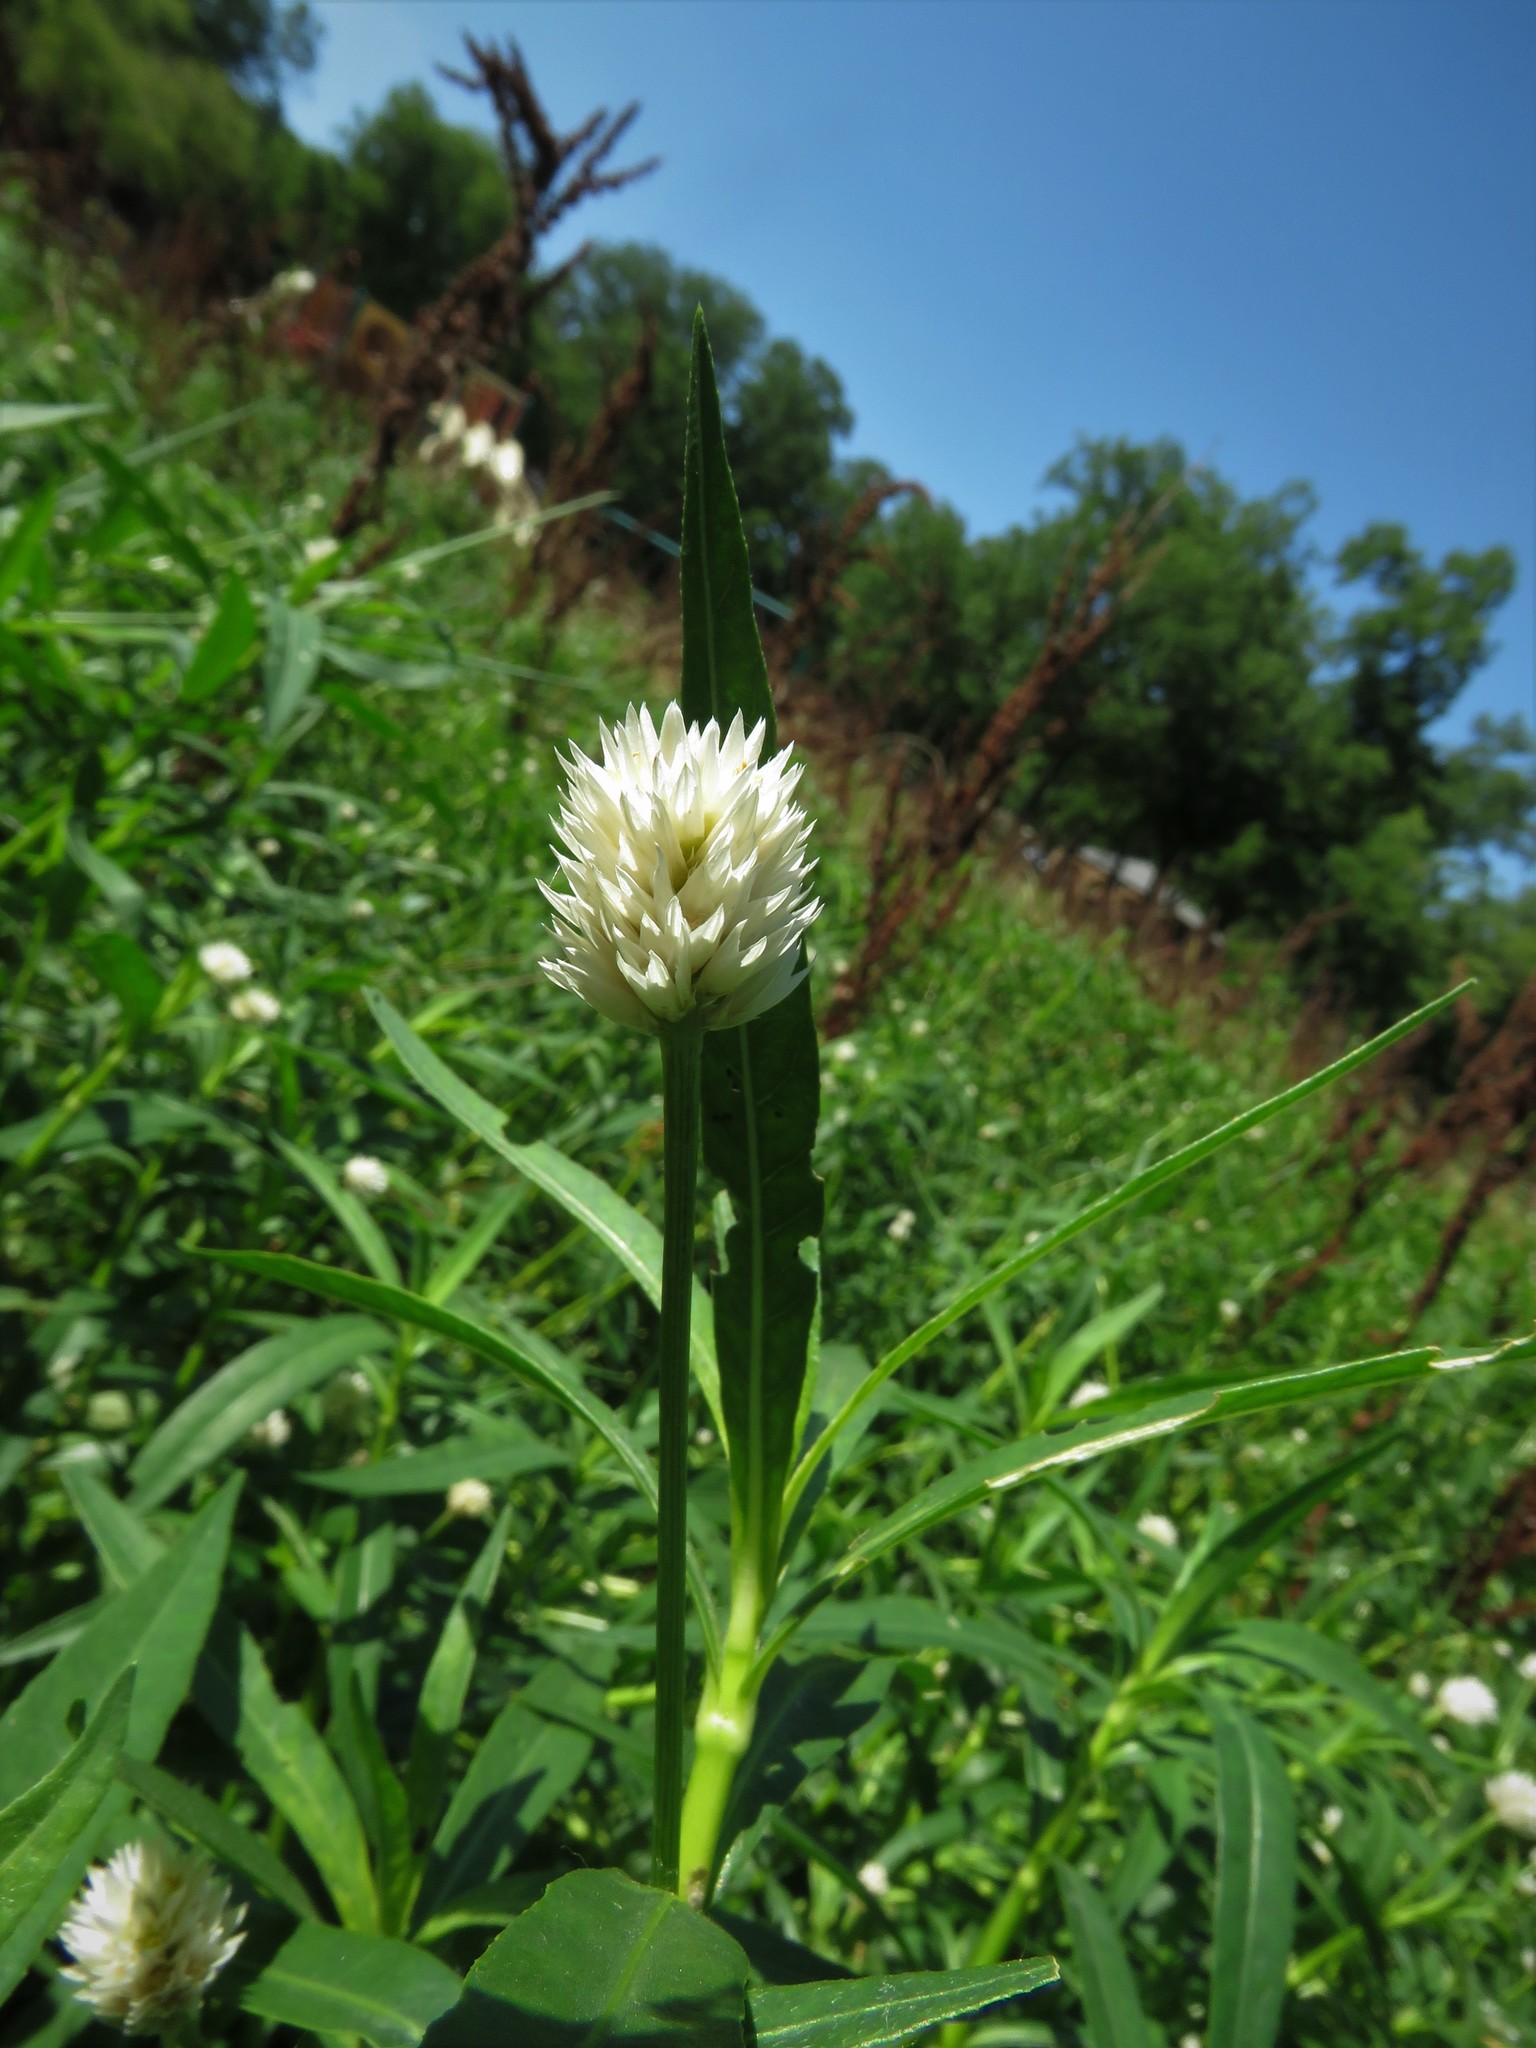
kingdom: Plantae
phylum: Tracheophyta
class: Magnoliopsida
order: Caryophyllales
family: Amaranthaceae
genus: Alternanthera
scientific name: Alternanthera philoxeroides
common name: Alligatorweed
